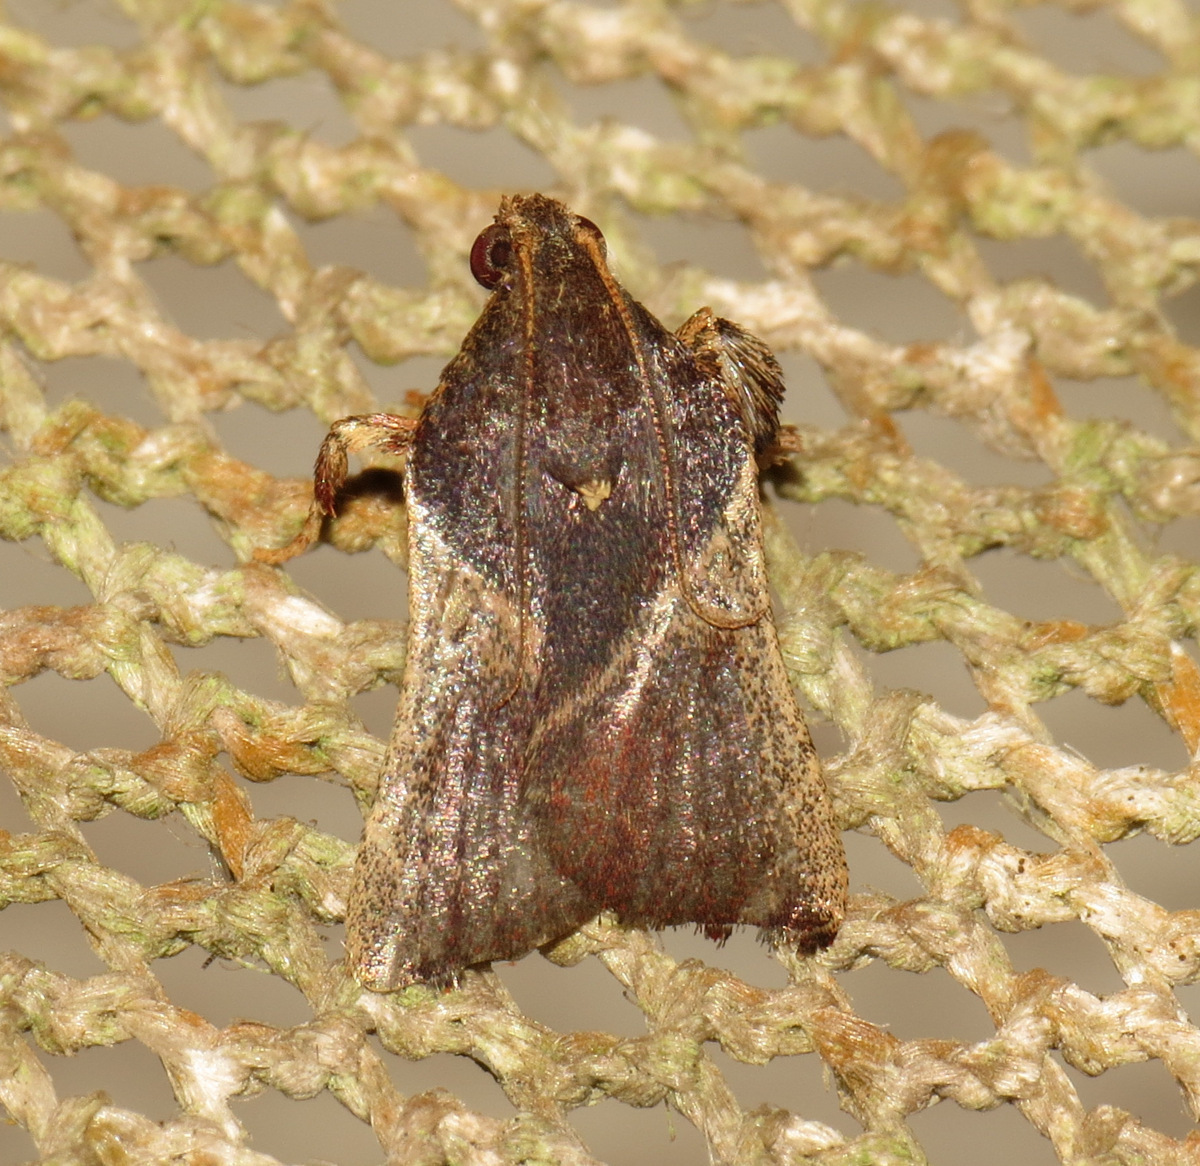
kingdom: Animalia
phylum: Arthropoda
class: Insecta
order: Lepidoptera
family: Pyralidae
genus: Dasycnemia
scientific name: Dasycnemia
